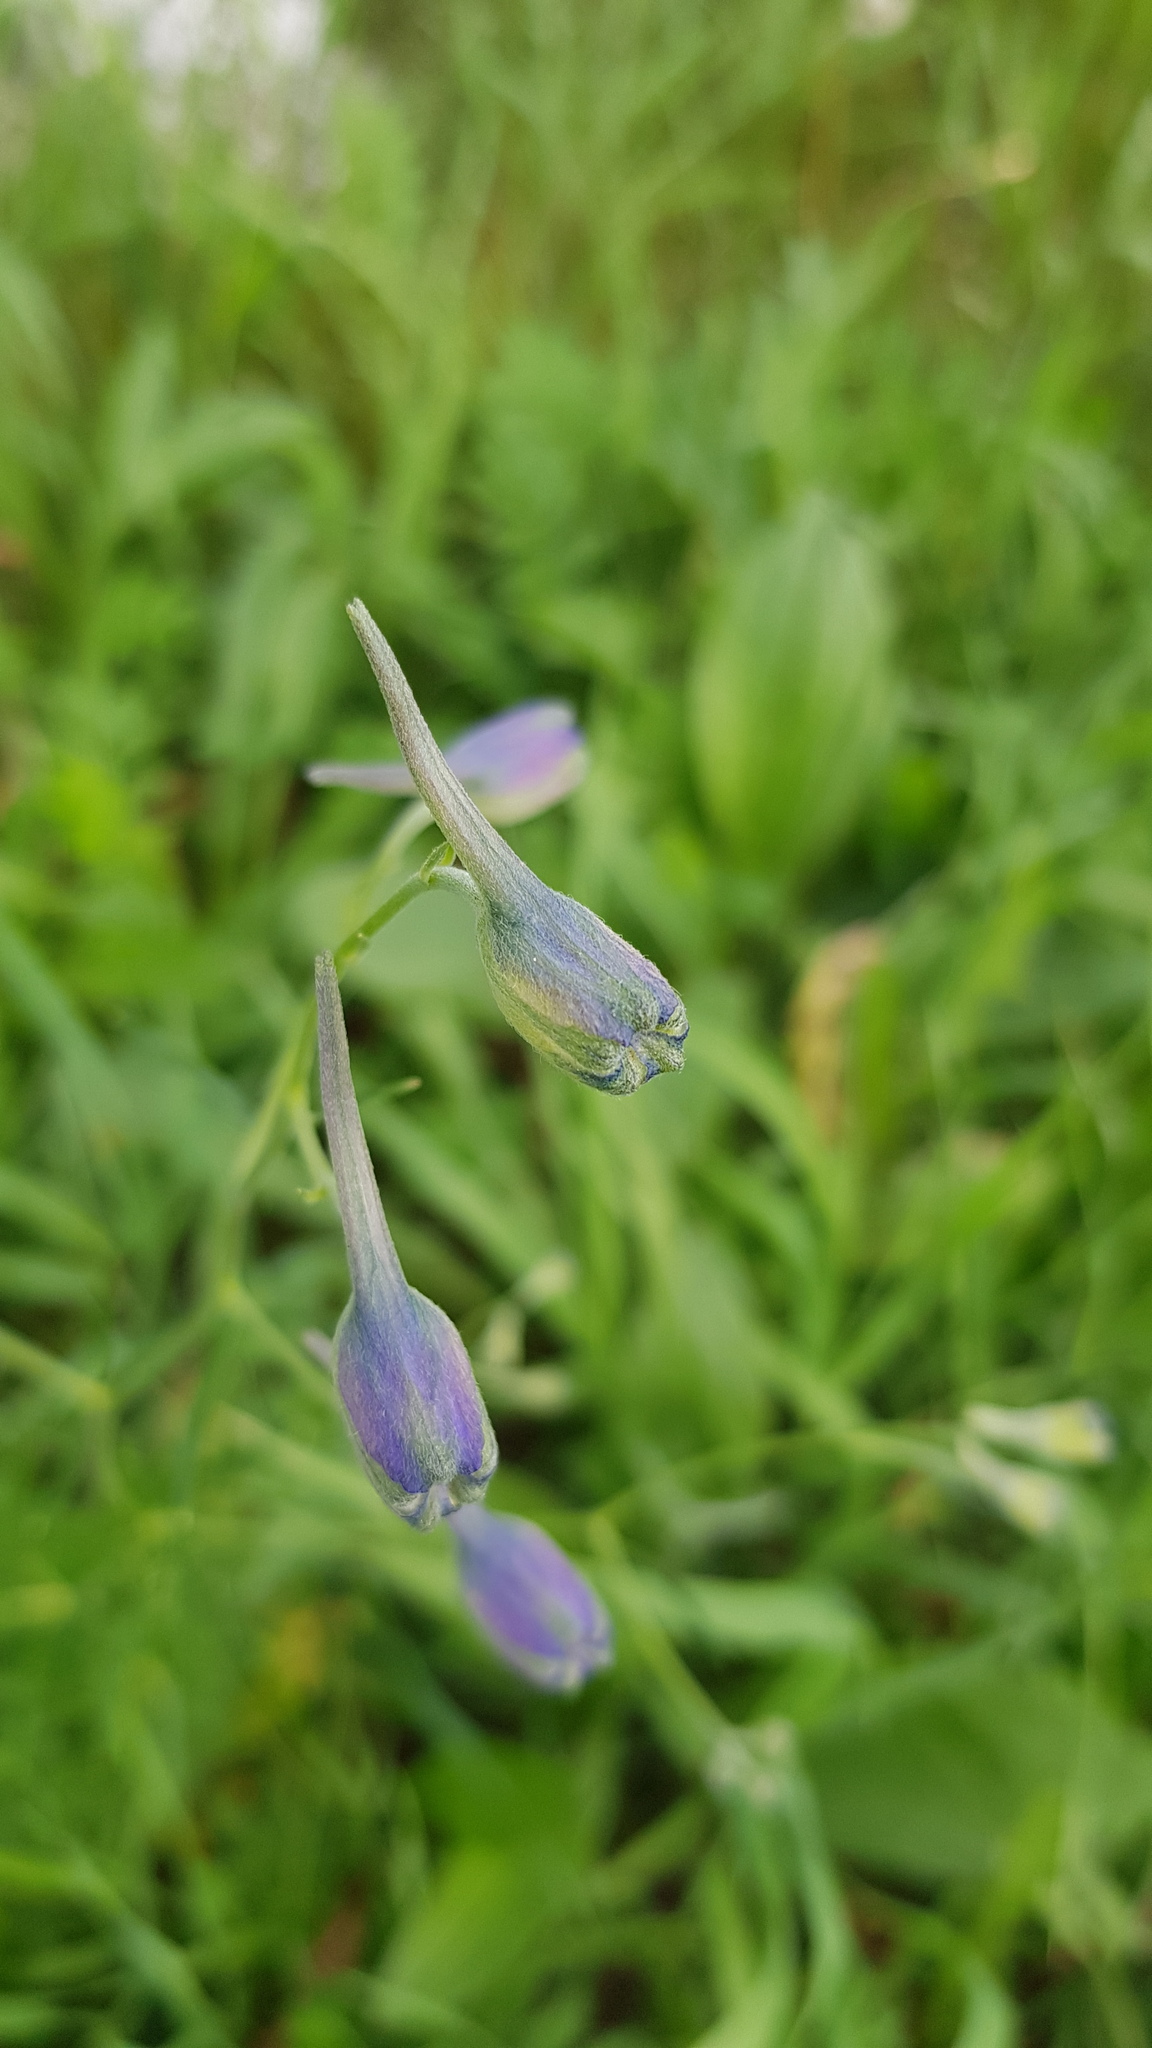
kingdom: Plantae
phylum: Tracheophyta
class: Magnoliopsida
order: Ranunculales
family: Ranunculaceae
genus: Delphinium
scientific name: Delphinium grandiflorum
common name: Siberian larkspur
